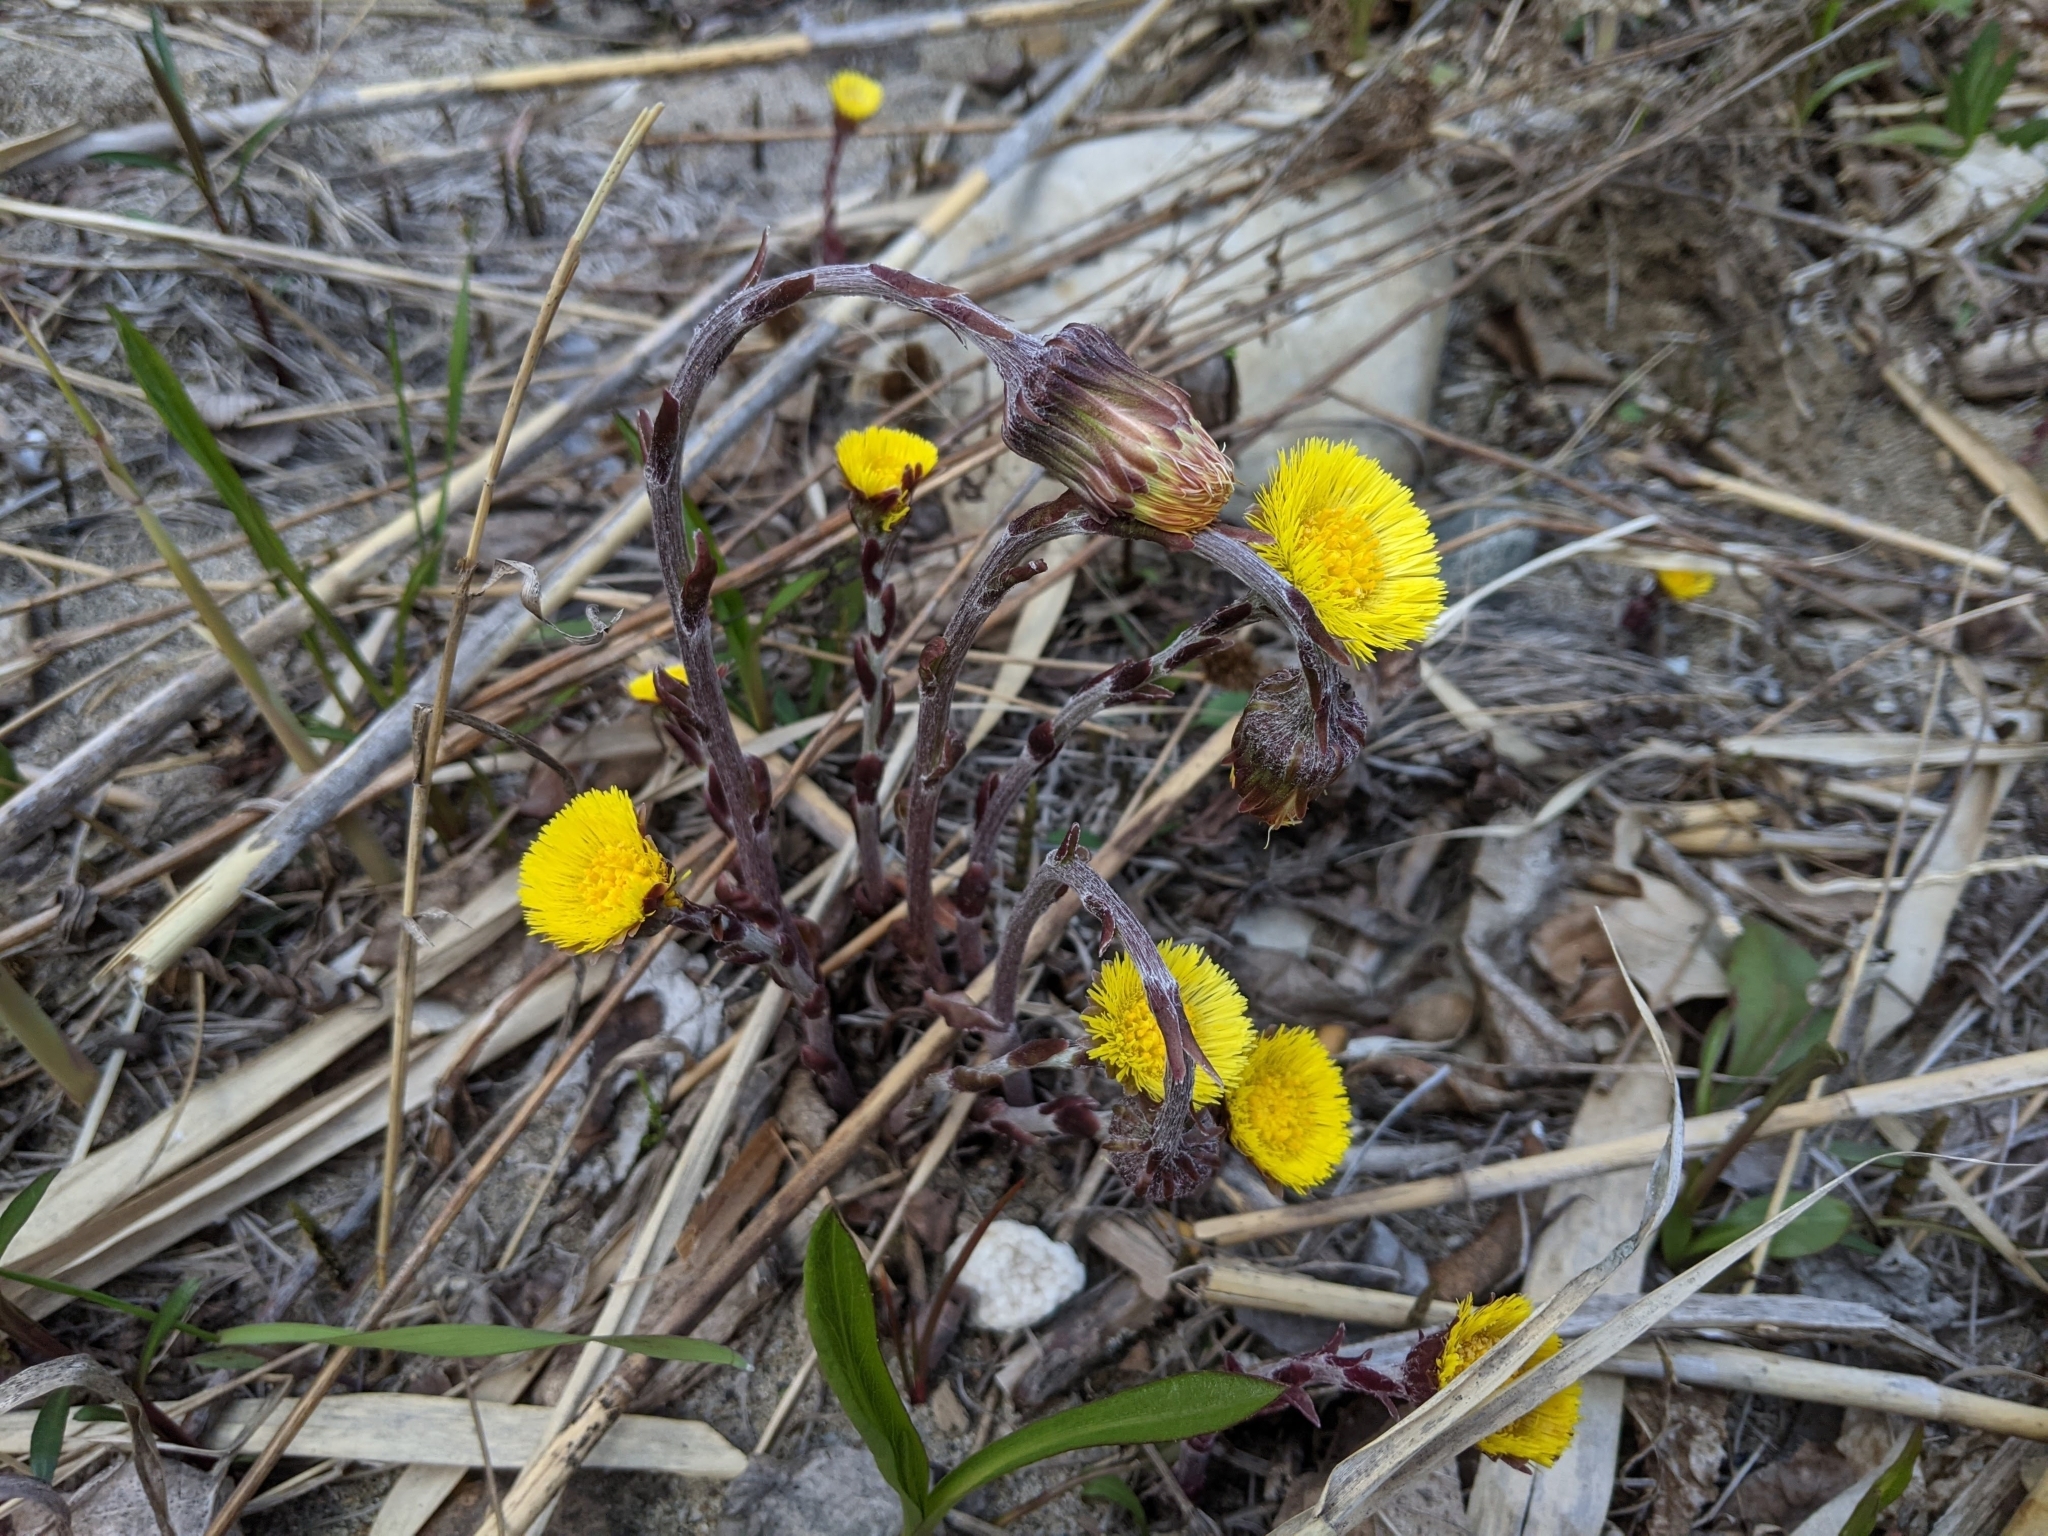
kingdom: Plantae
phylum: Tracheophyta
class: Magnoliopsida
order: Asterales
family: Asteraceae
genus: Tussilago
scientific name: Tussilago farfara
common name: Coltsfoot
